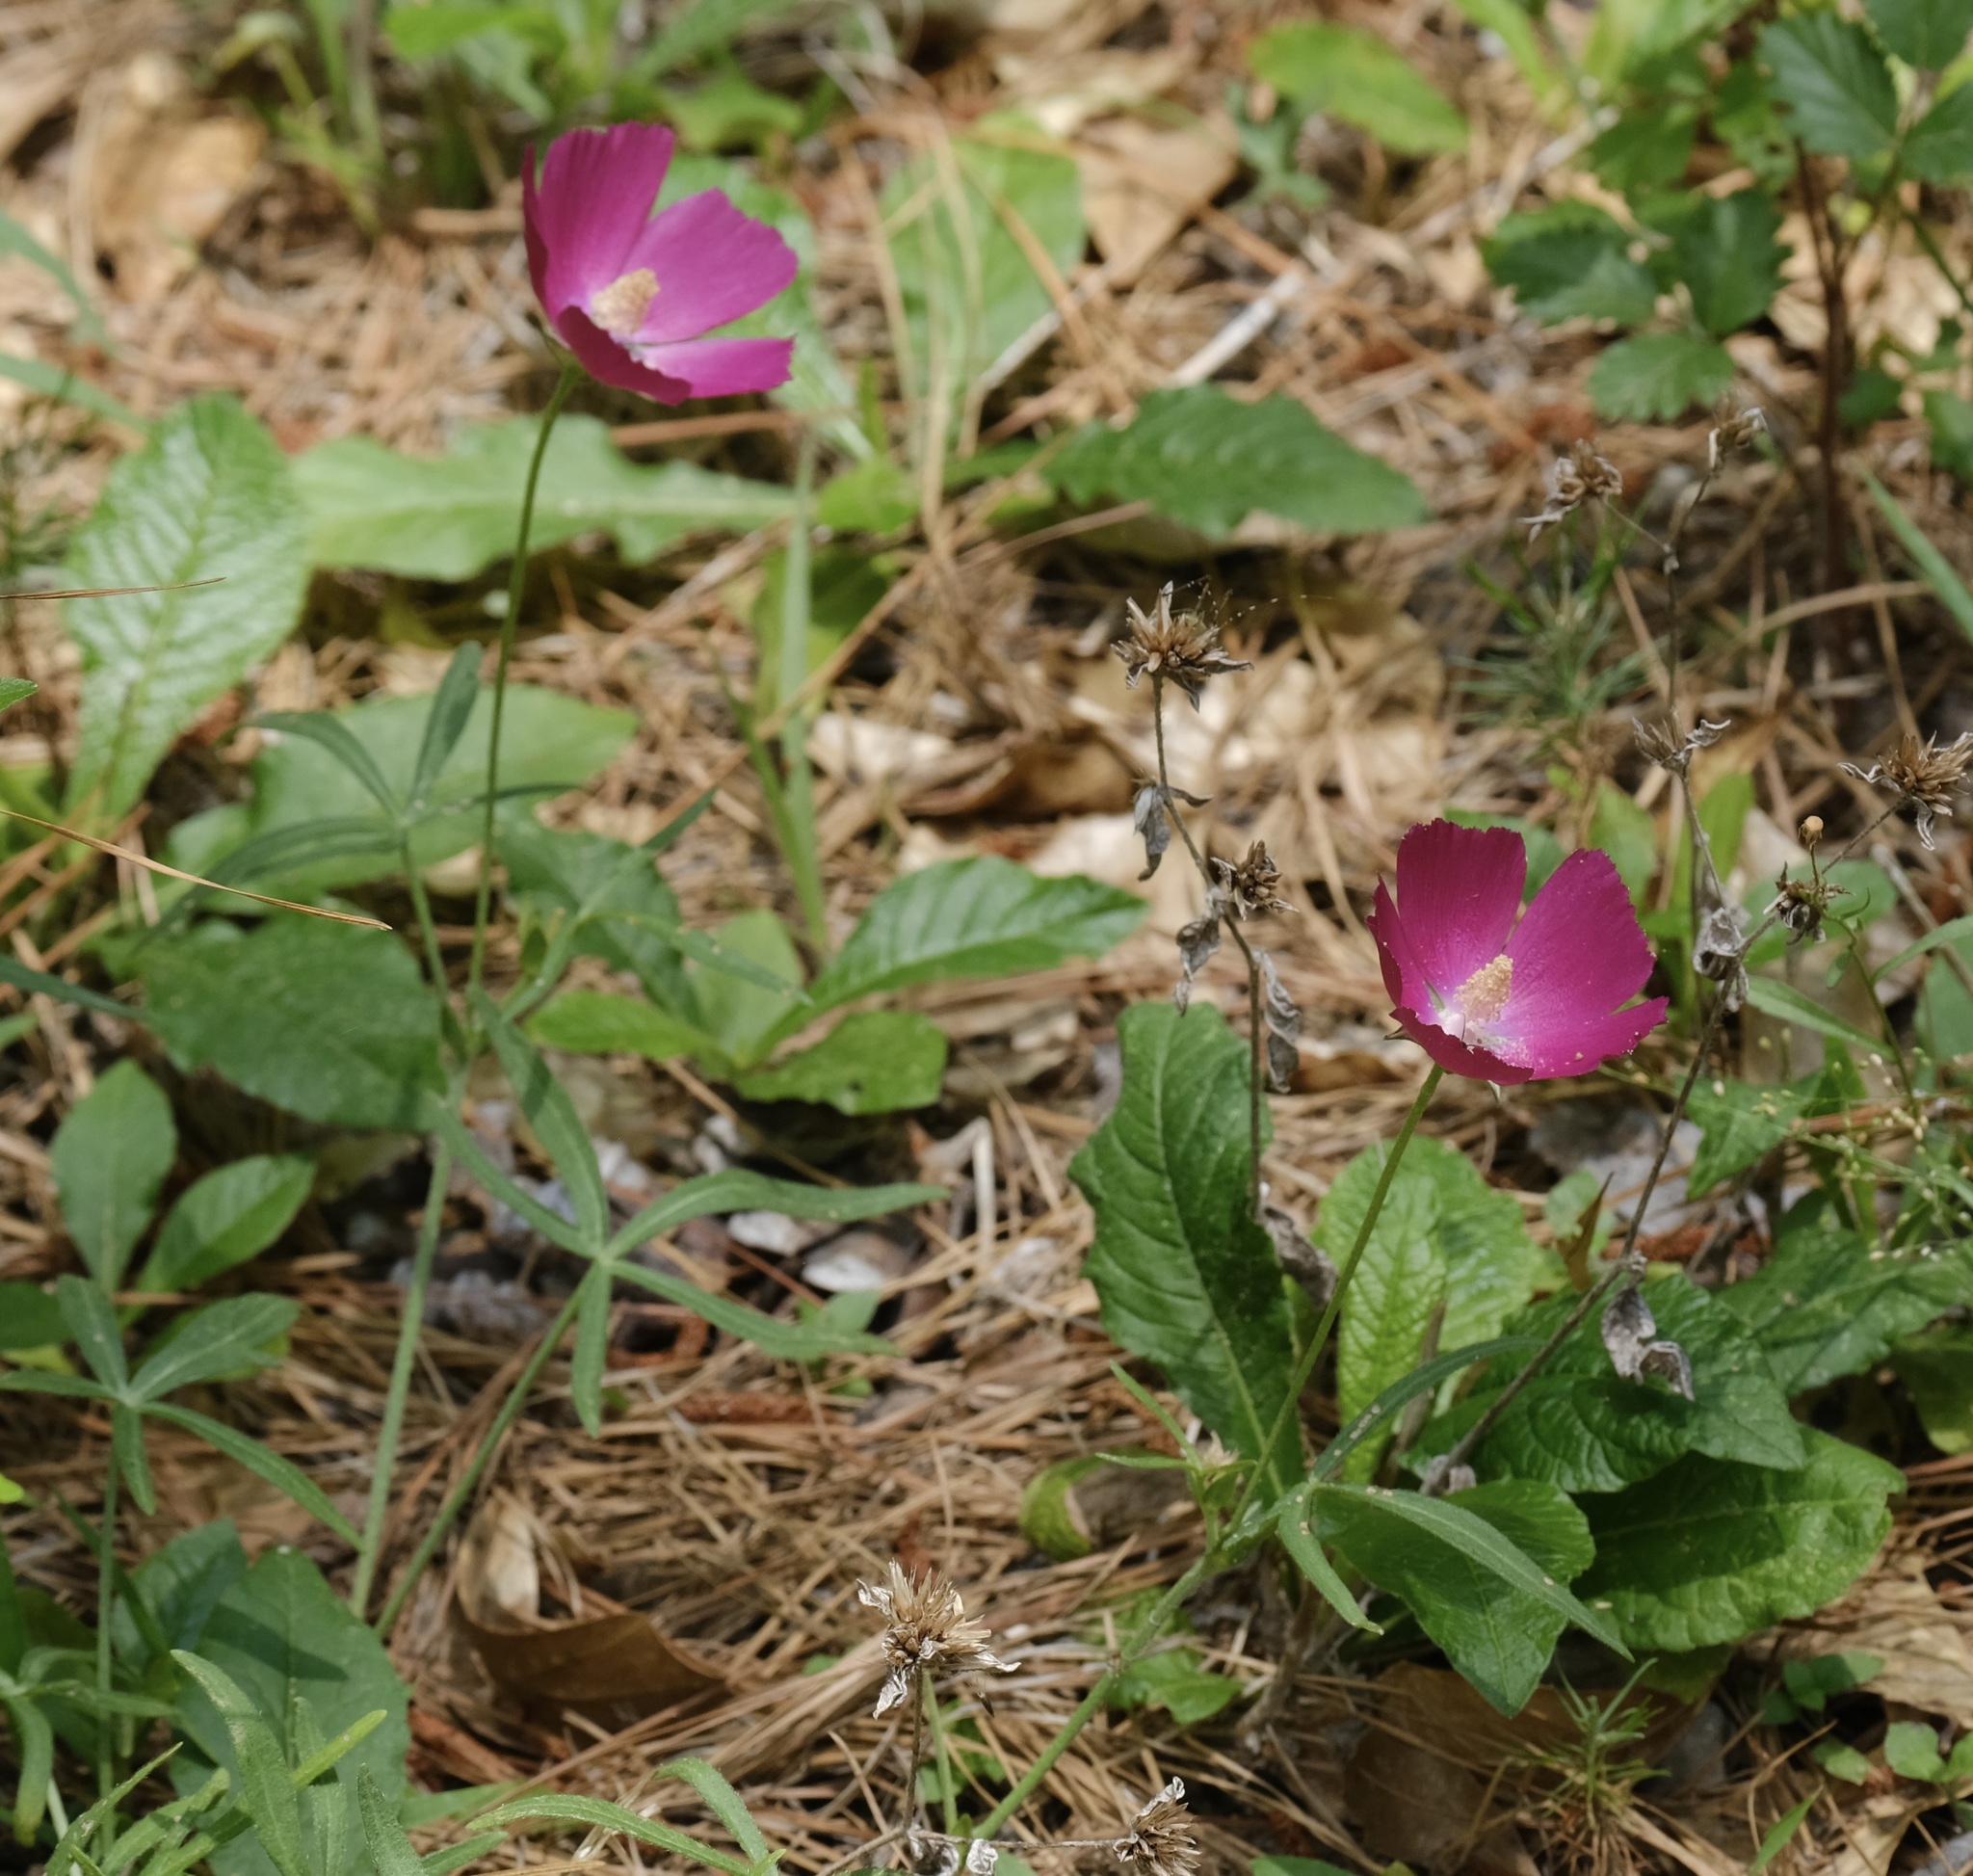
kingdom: Plantae
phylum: Tracheophyta
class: Magnoliopsida
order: Malvales
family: Malvaceae
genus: Callirhoe
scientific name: Callirhoe papaver
